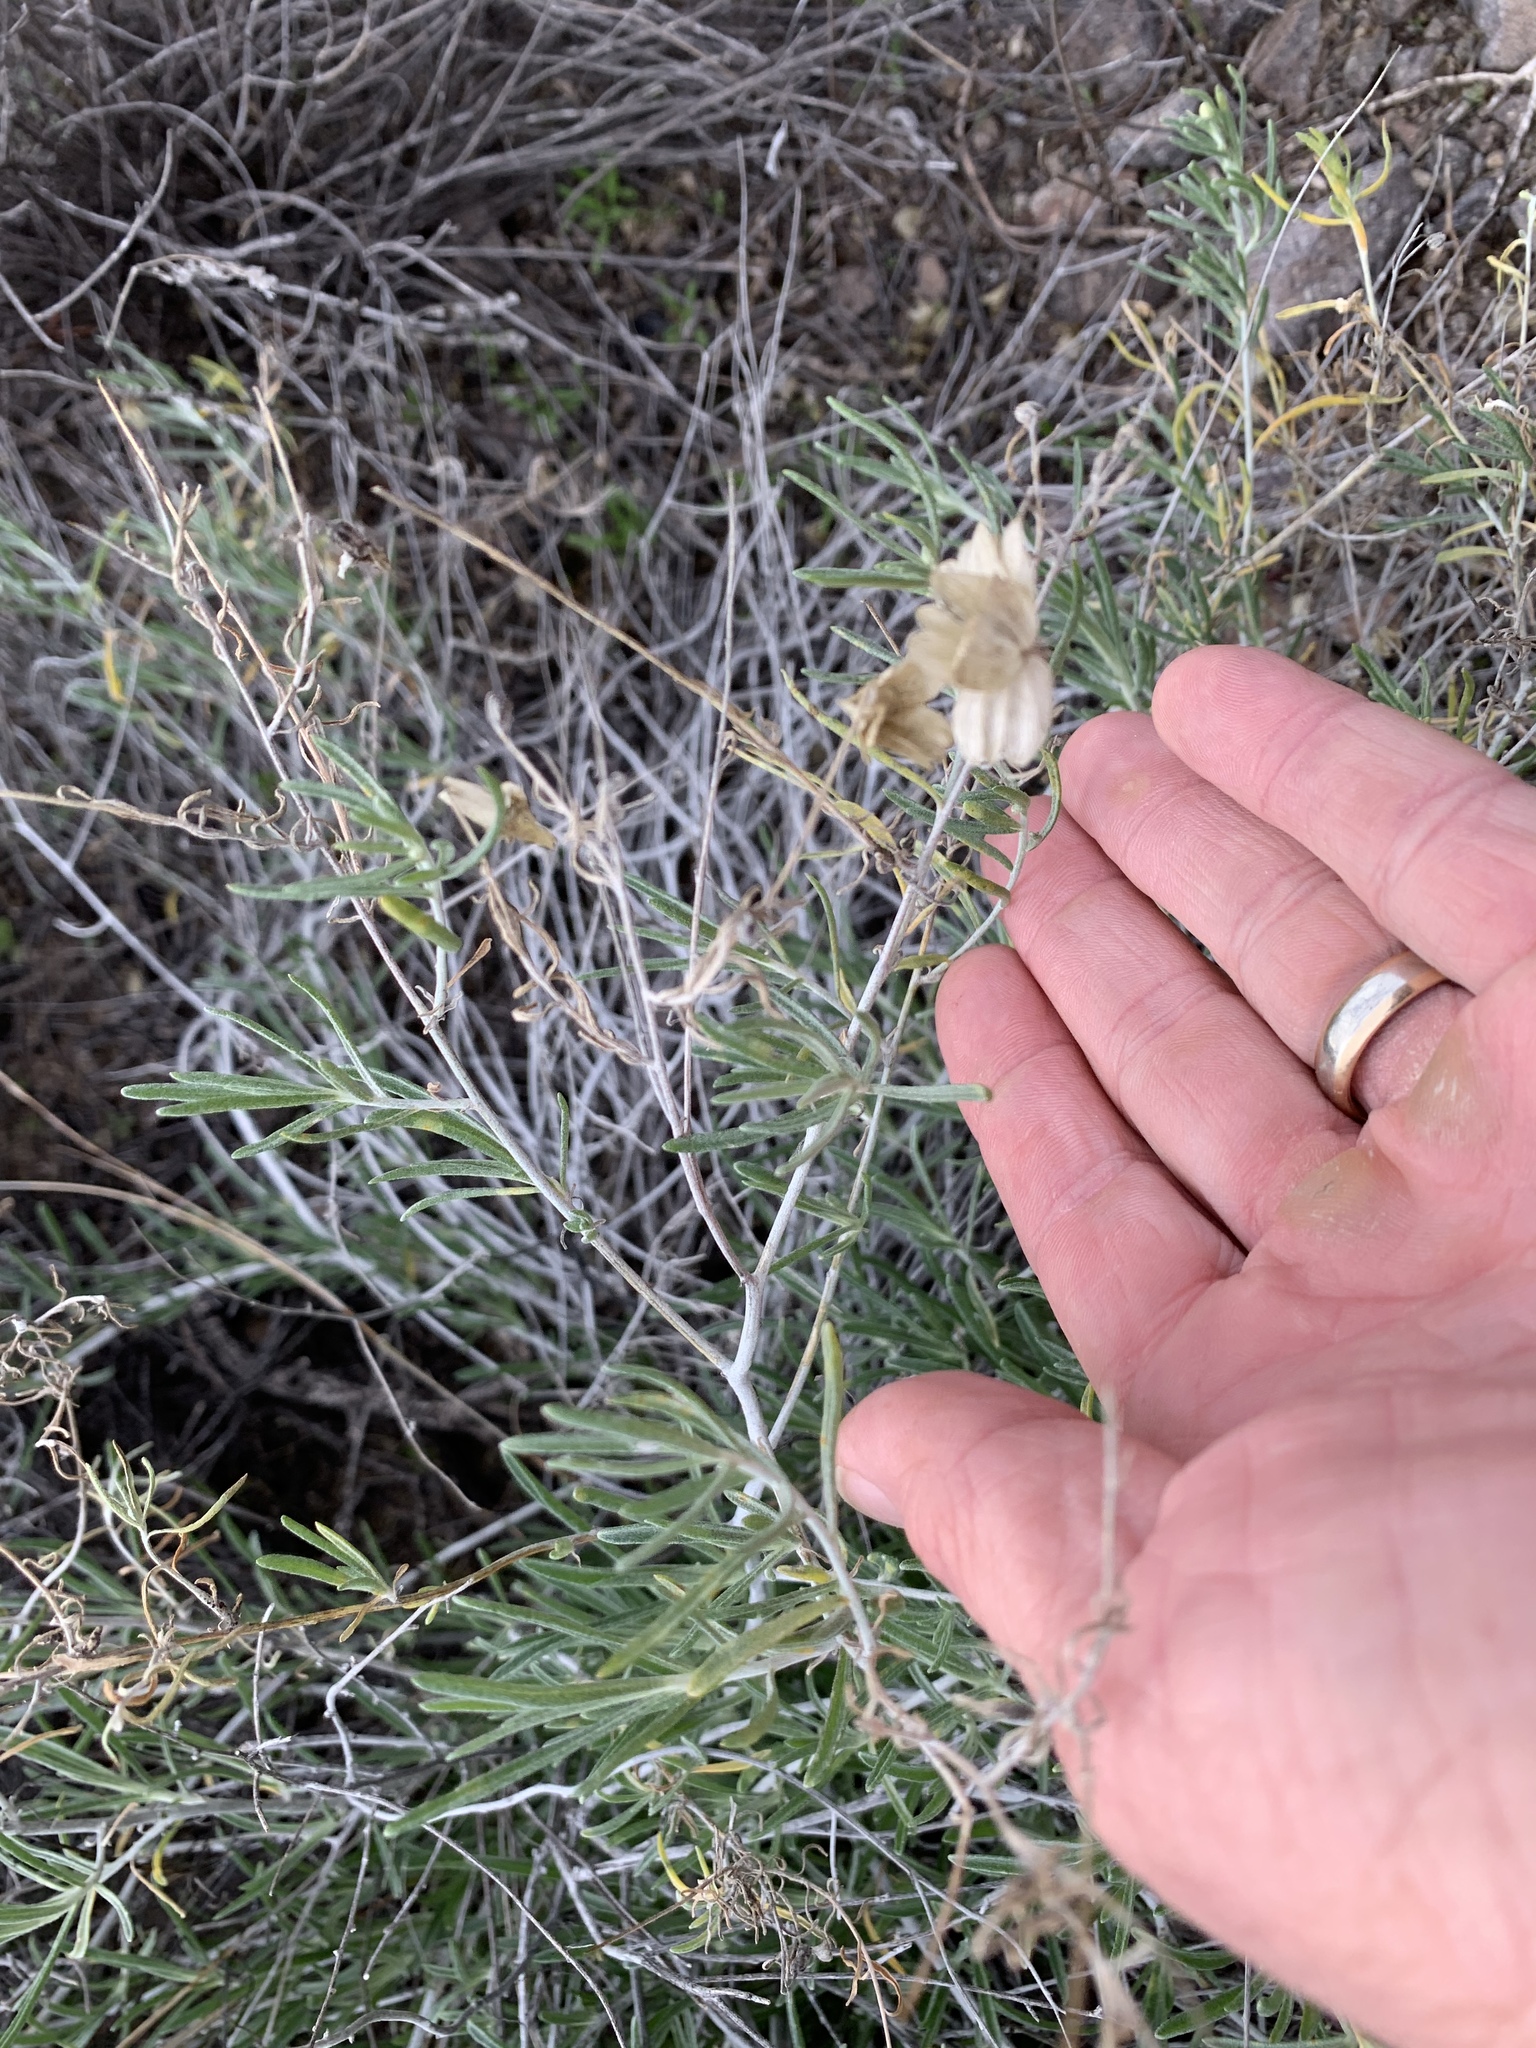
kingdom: Plantae
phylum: Tracheophyta
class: Magnoliopsida
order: Asterales
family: Asteraceae
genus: Psilostrophe
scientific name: Psilostrophe cooperi
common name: White-stem paper-flower
